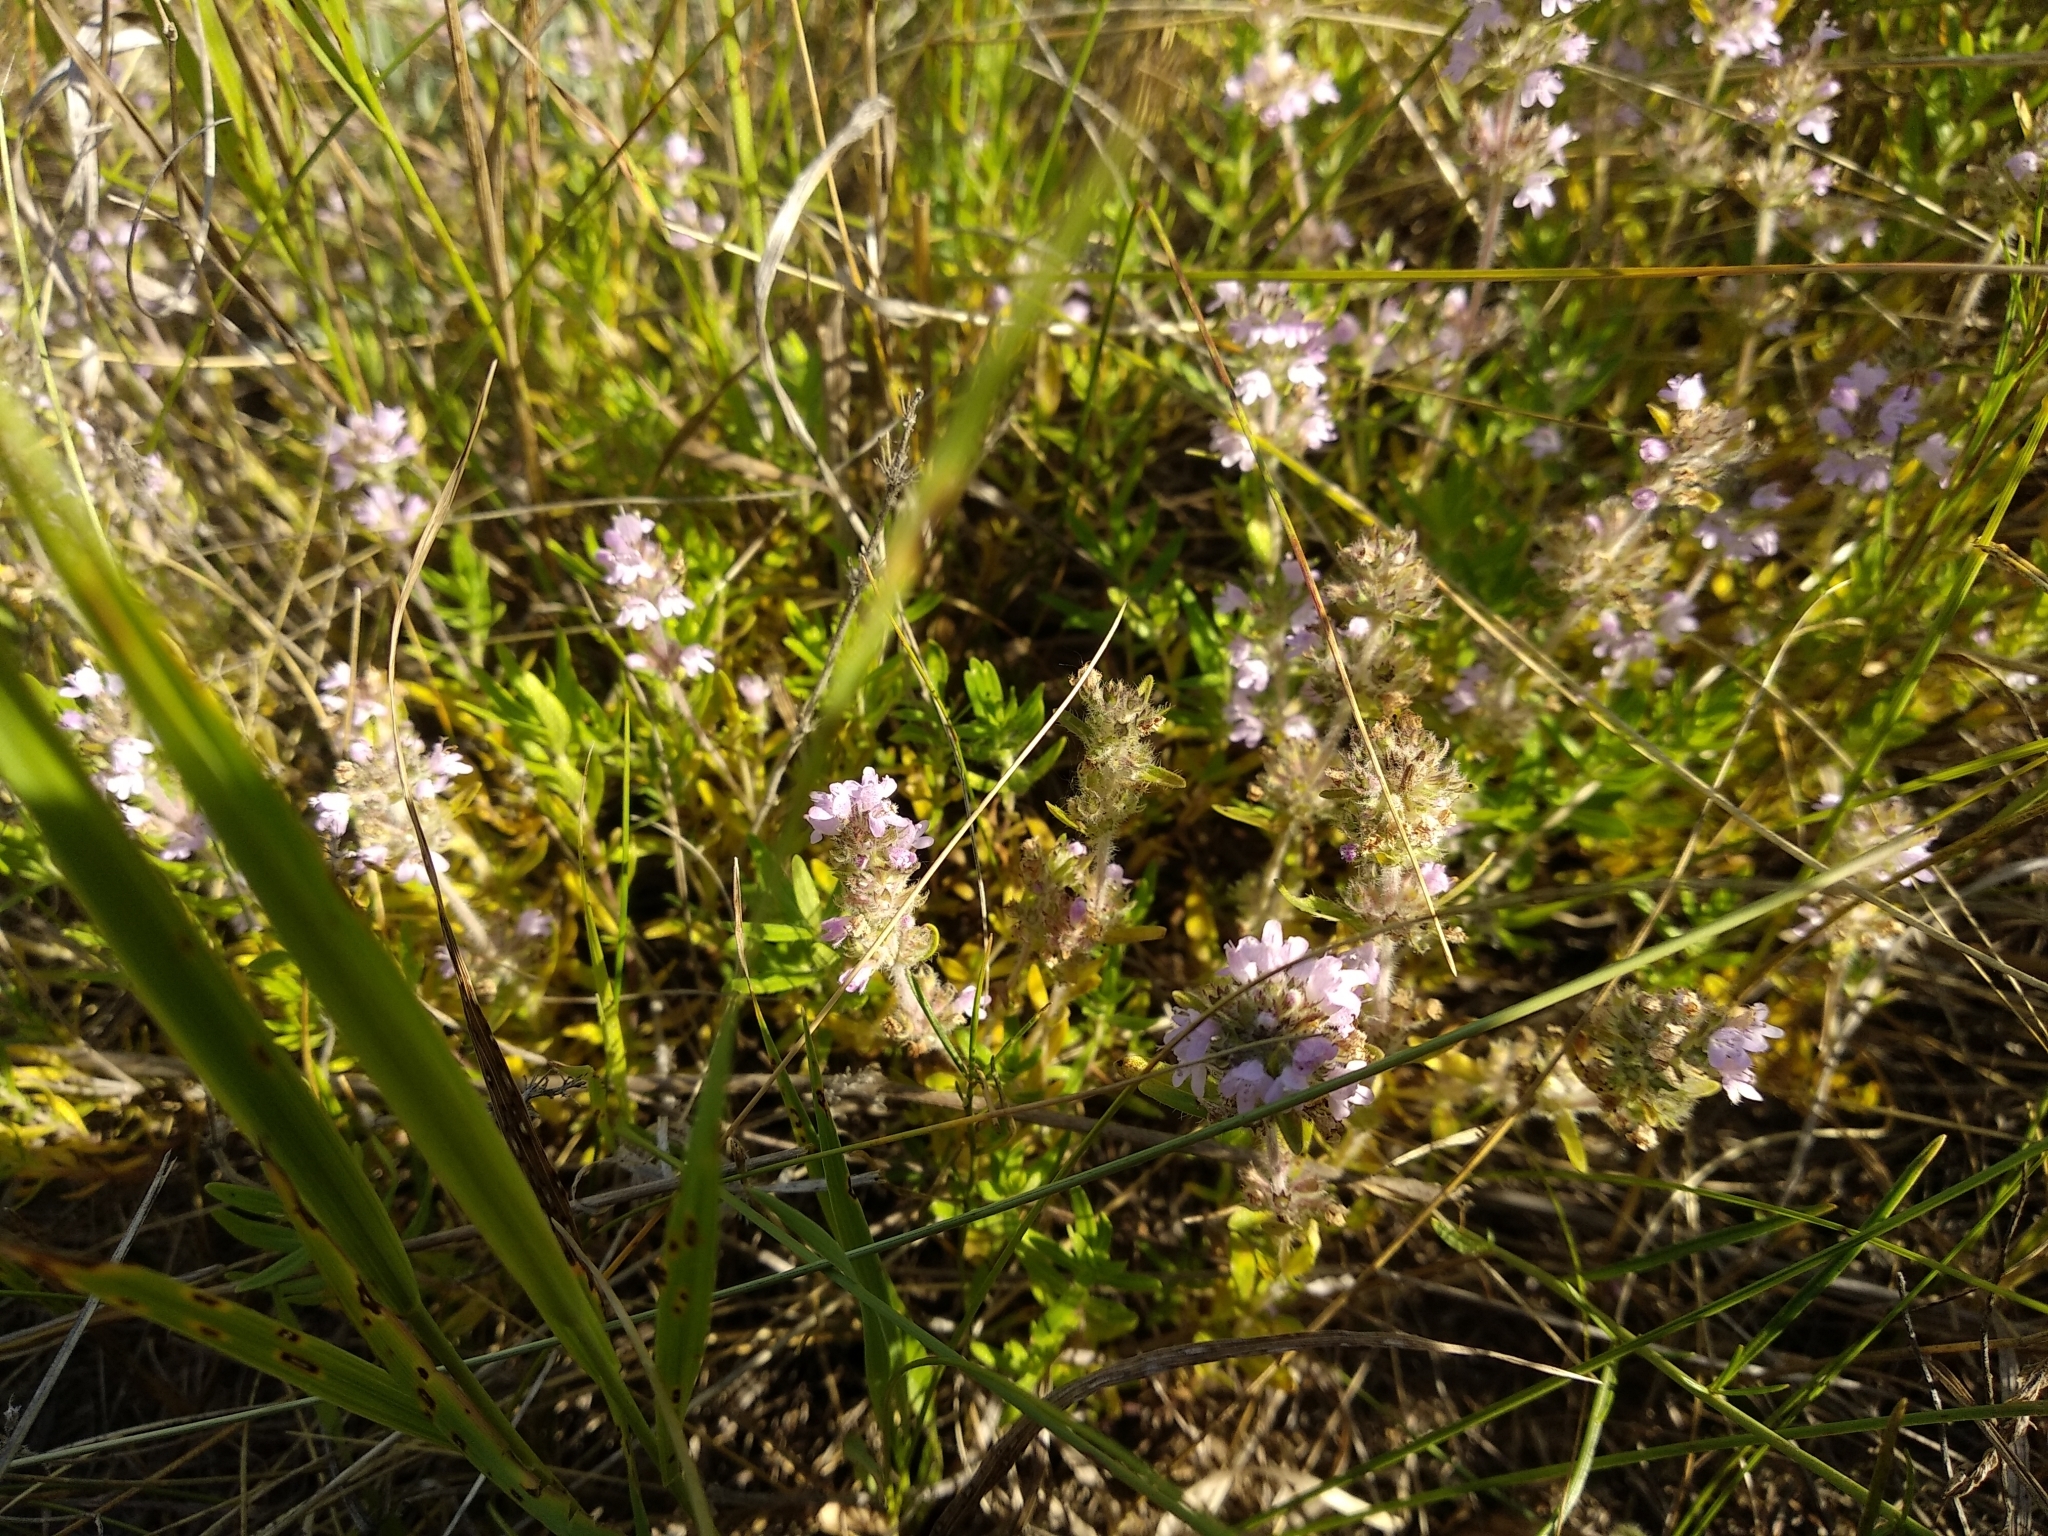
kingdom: Plantae
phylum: Tracheophyta
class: Magnoliopsida
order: Lamiales
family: Lamiaceae
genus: Thymus
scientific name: Thymus pannonicus
